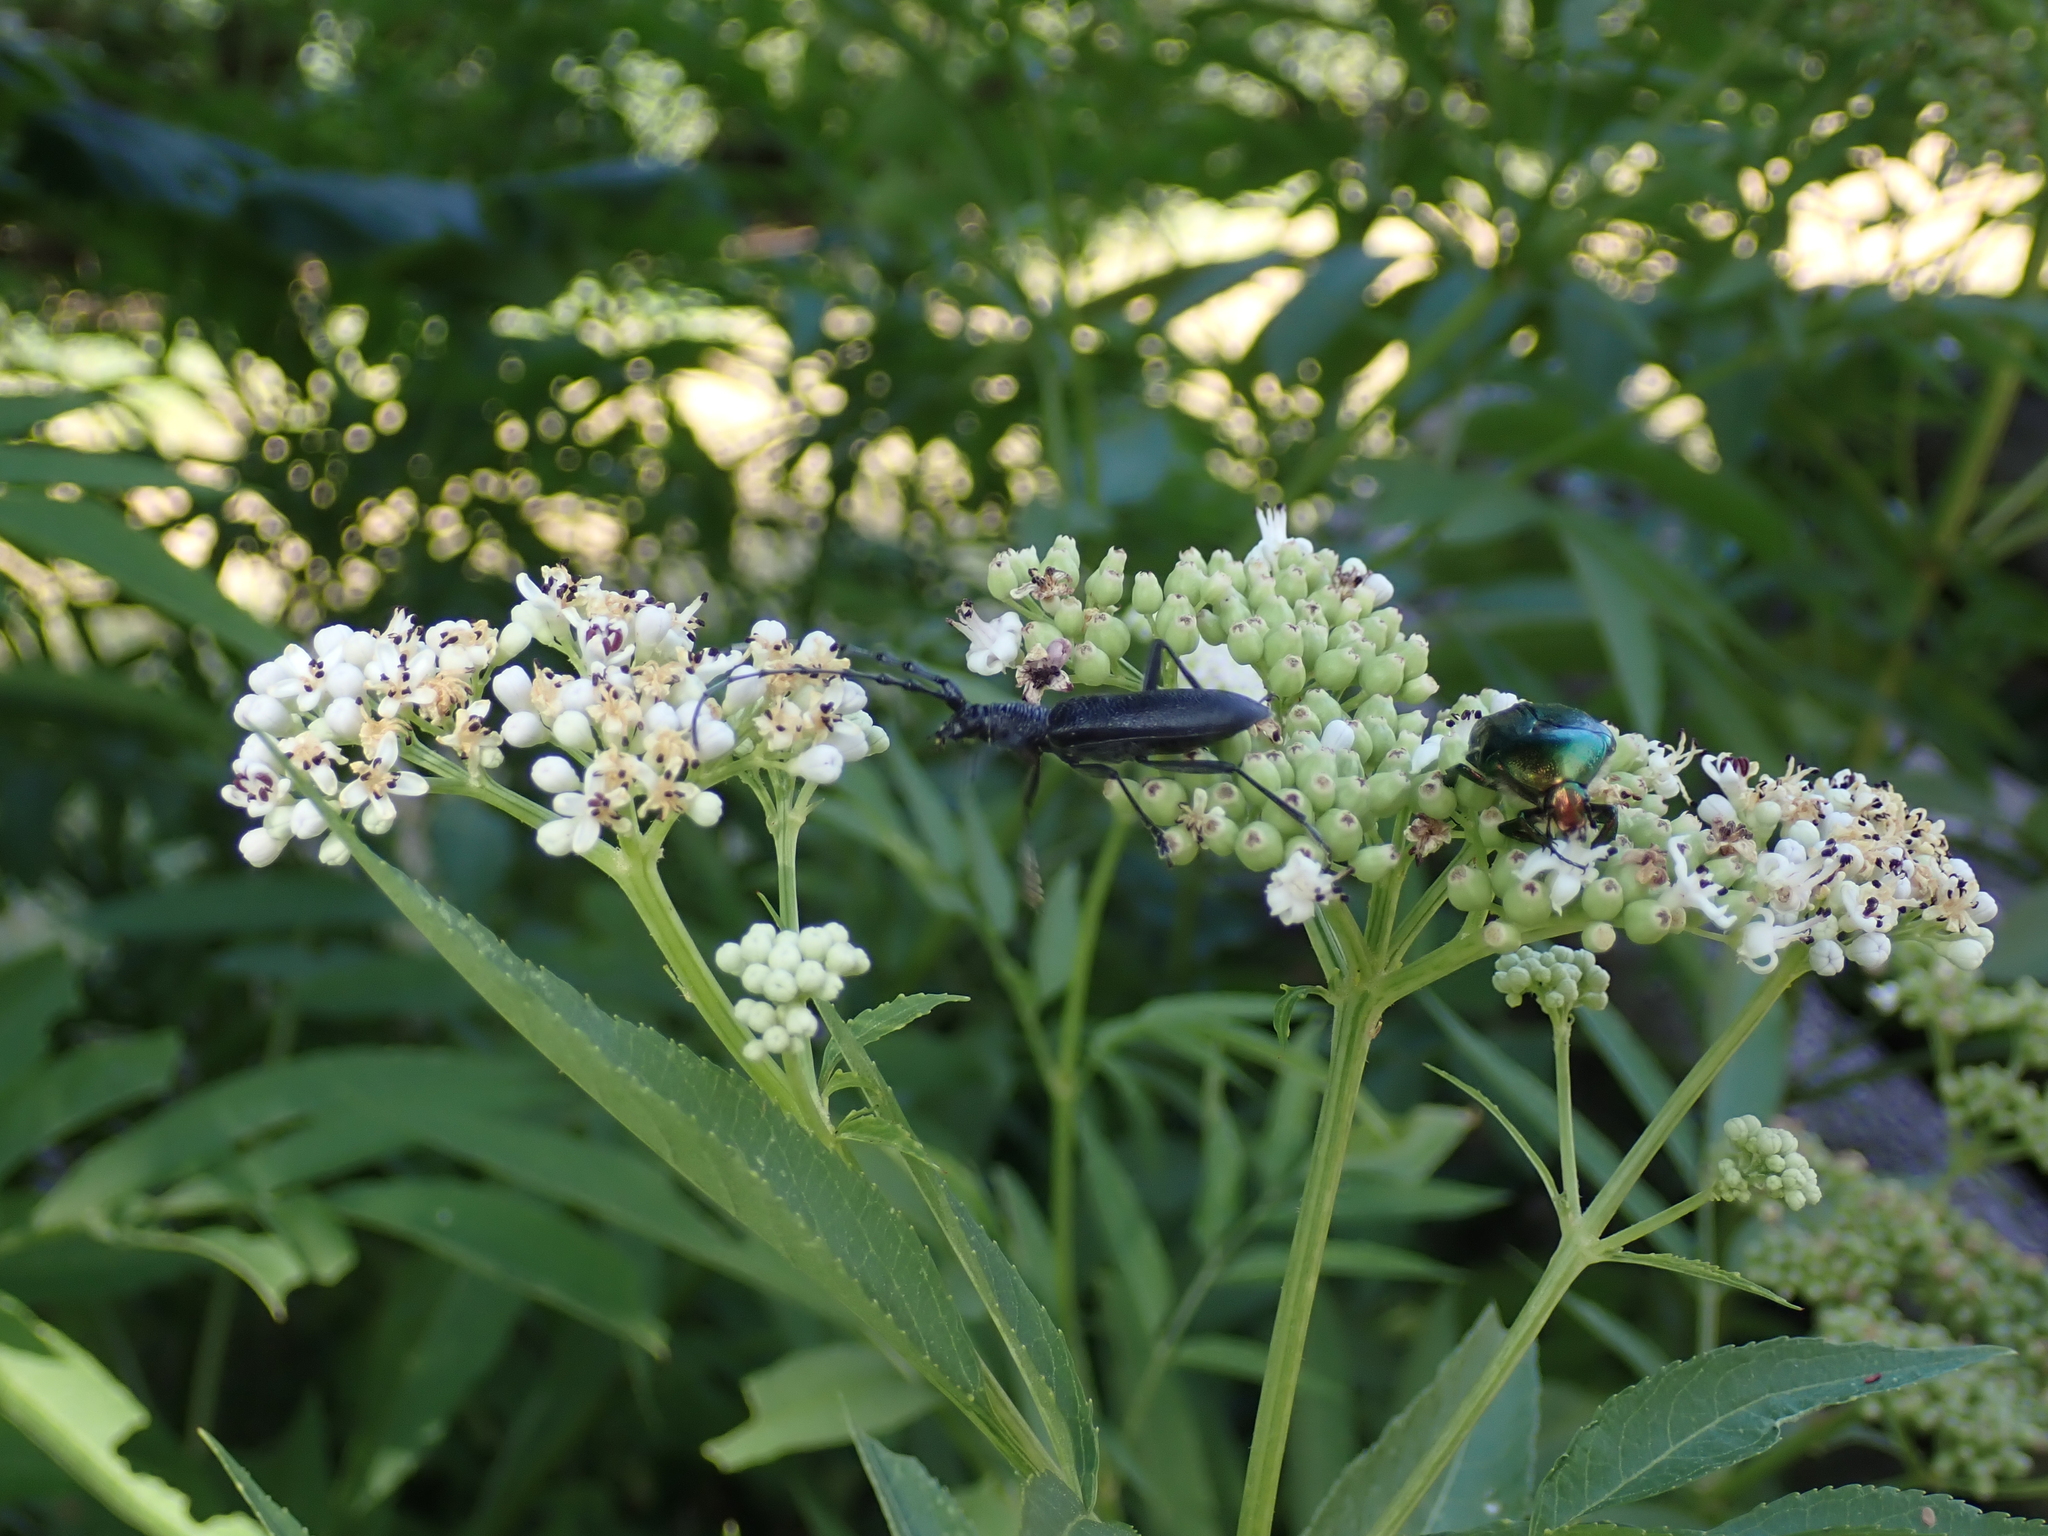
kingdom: Animalia
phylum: Arthropoda
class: Insecta
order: Coleoptera
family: Cerambycidae
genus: Cerambyx
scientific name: Cerambyx scopolii
